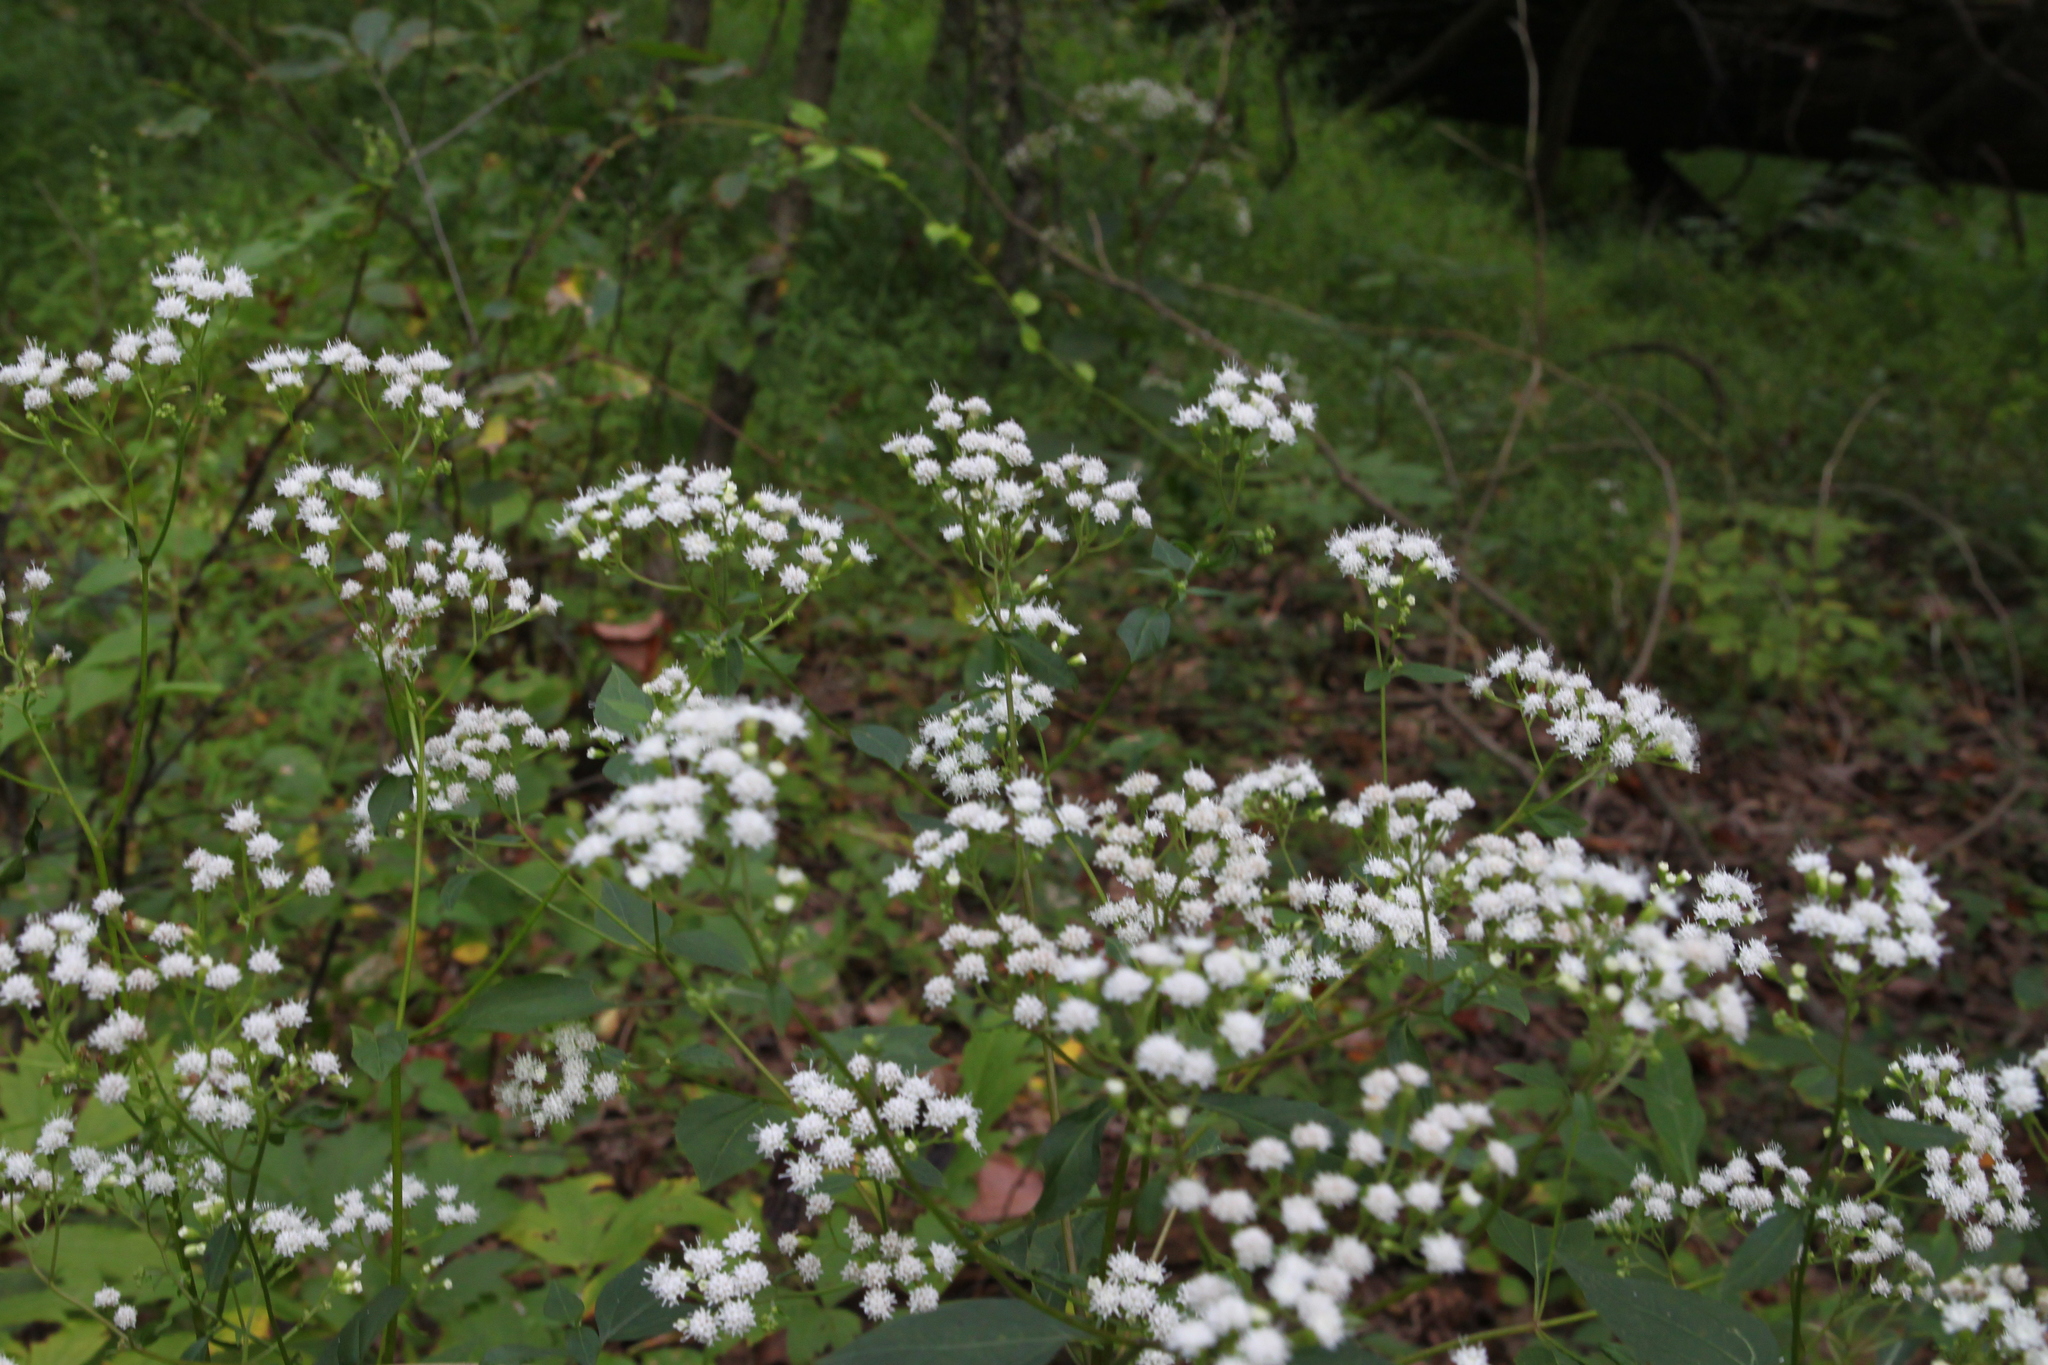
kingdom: Plantae
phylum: Tracheophyta
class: Magnoliopsida
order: Asterales
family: Asteraceae
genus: Ageratina
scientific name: Ageratina altissima
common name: White snakeroot
